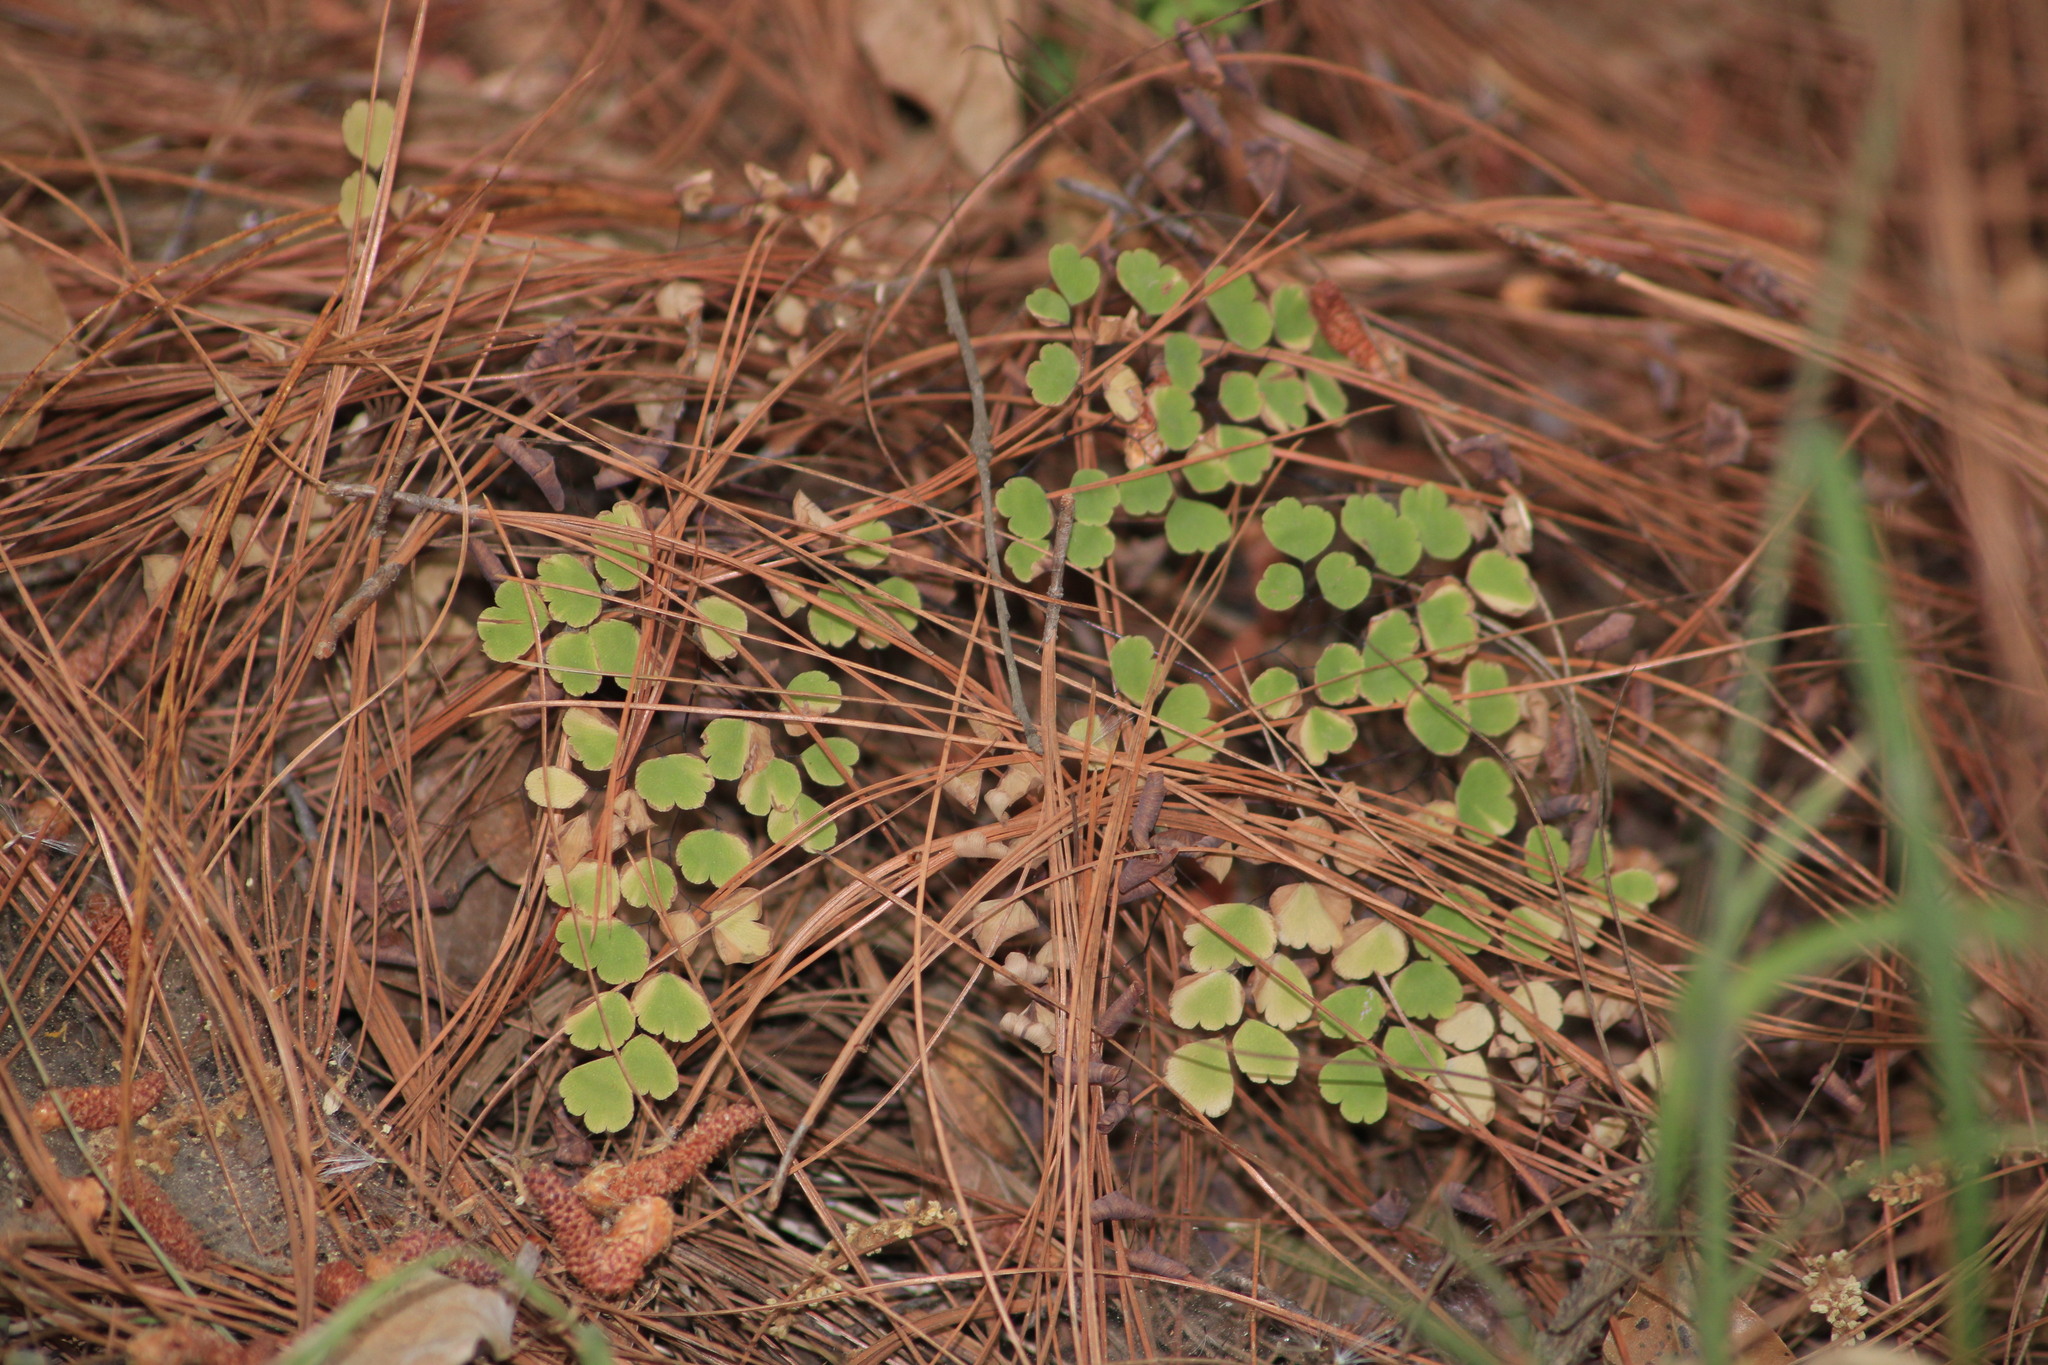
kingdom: Plantae
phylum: Tracheophyta
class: Polypodiopsida
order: Polypodiales
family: Pteridaceae
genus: Adiantum
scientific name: Adiantum poiretii
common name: Mexican maidenhair
